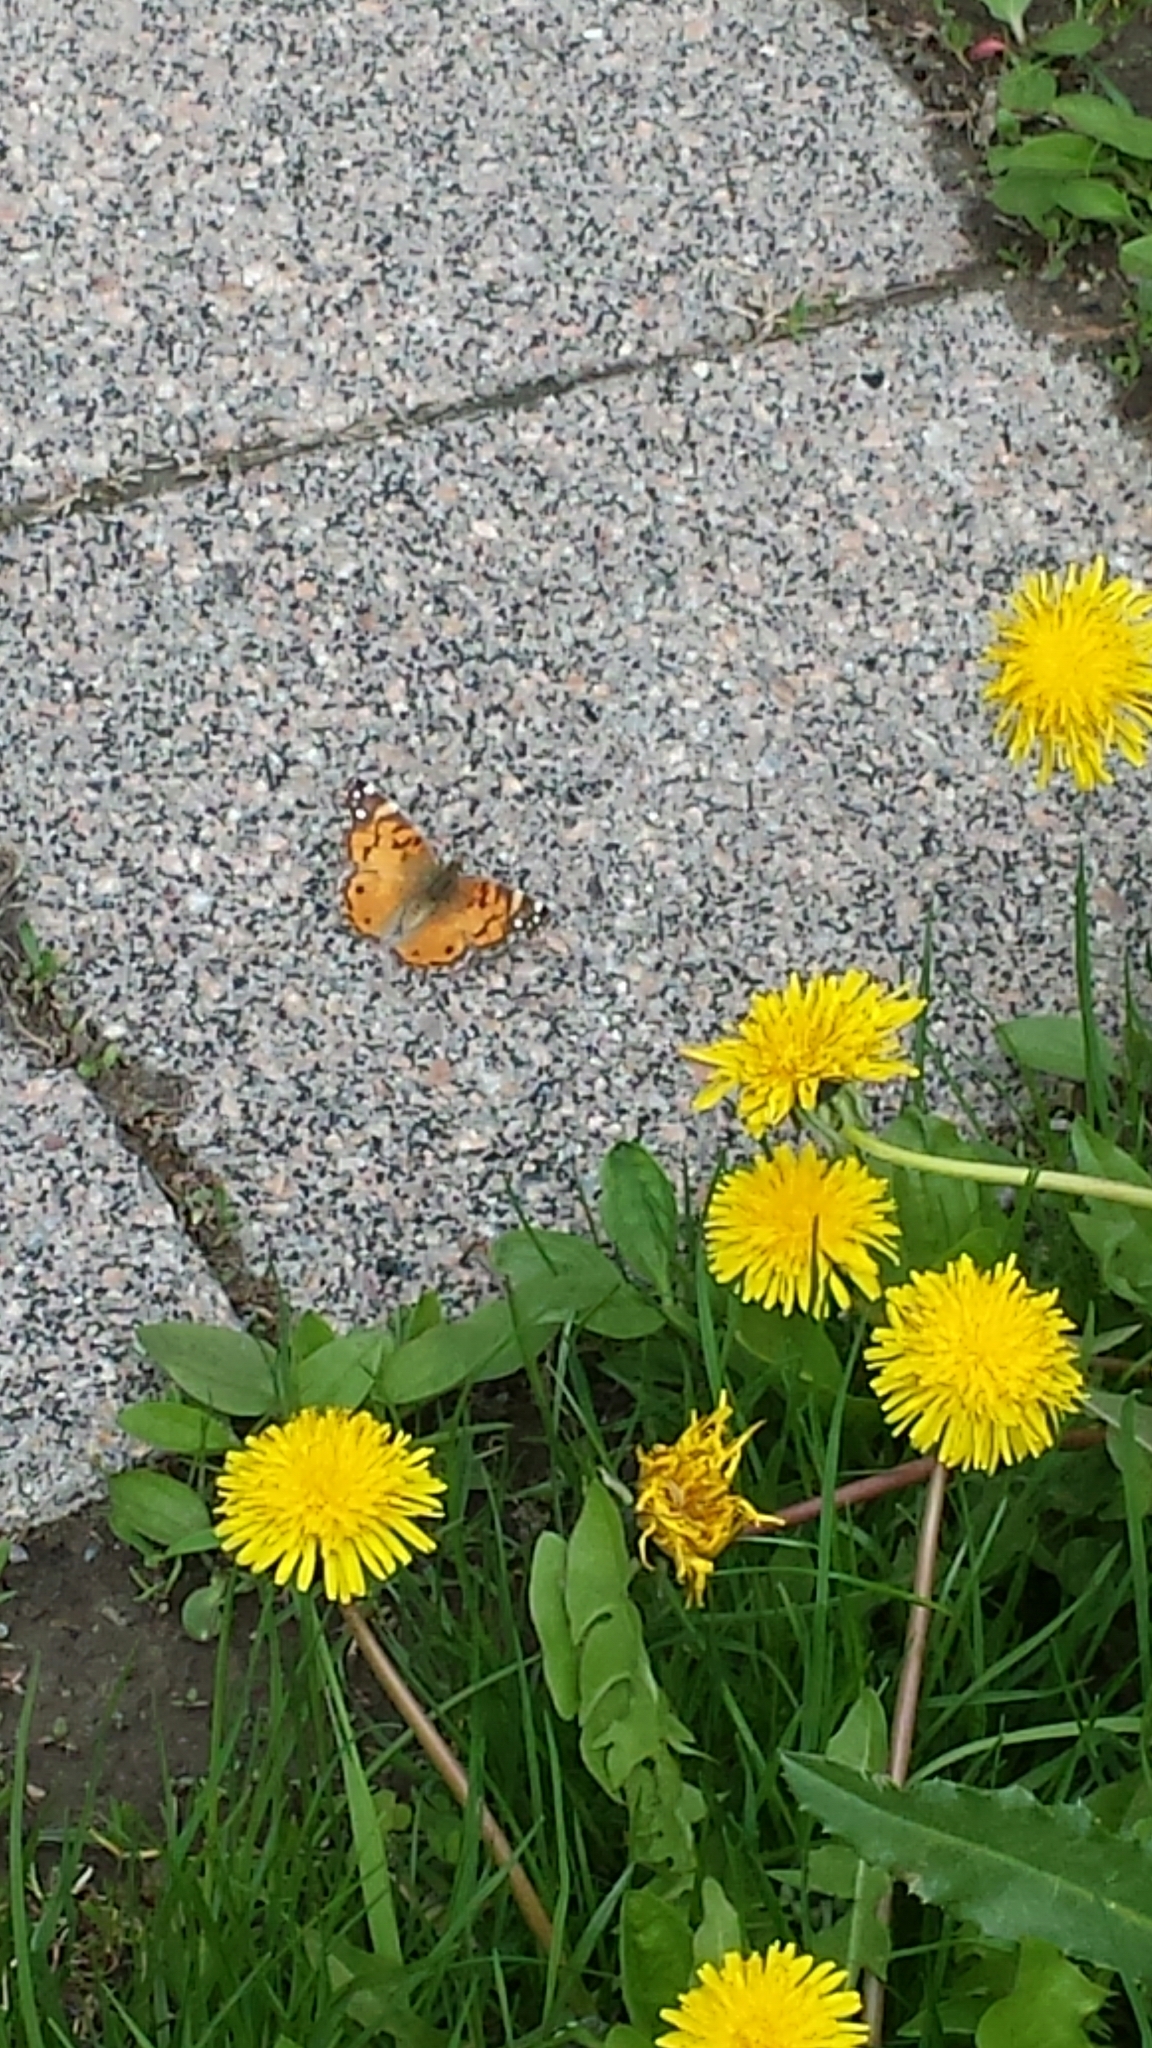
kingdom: Animalia
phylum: Arthropoda
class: Insecta
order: Lepidoptera
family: Nymphalidae
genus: Vanessa
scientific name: Vanessa virginiensis
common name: American lady
